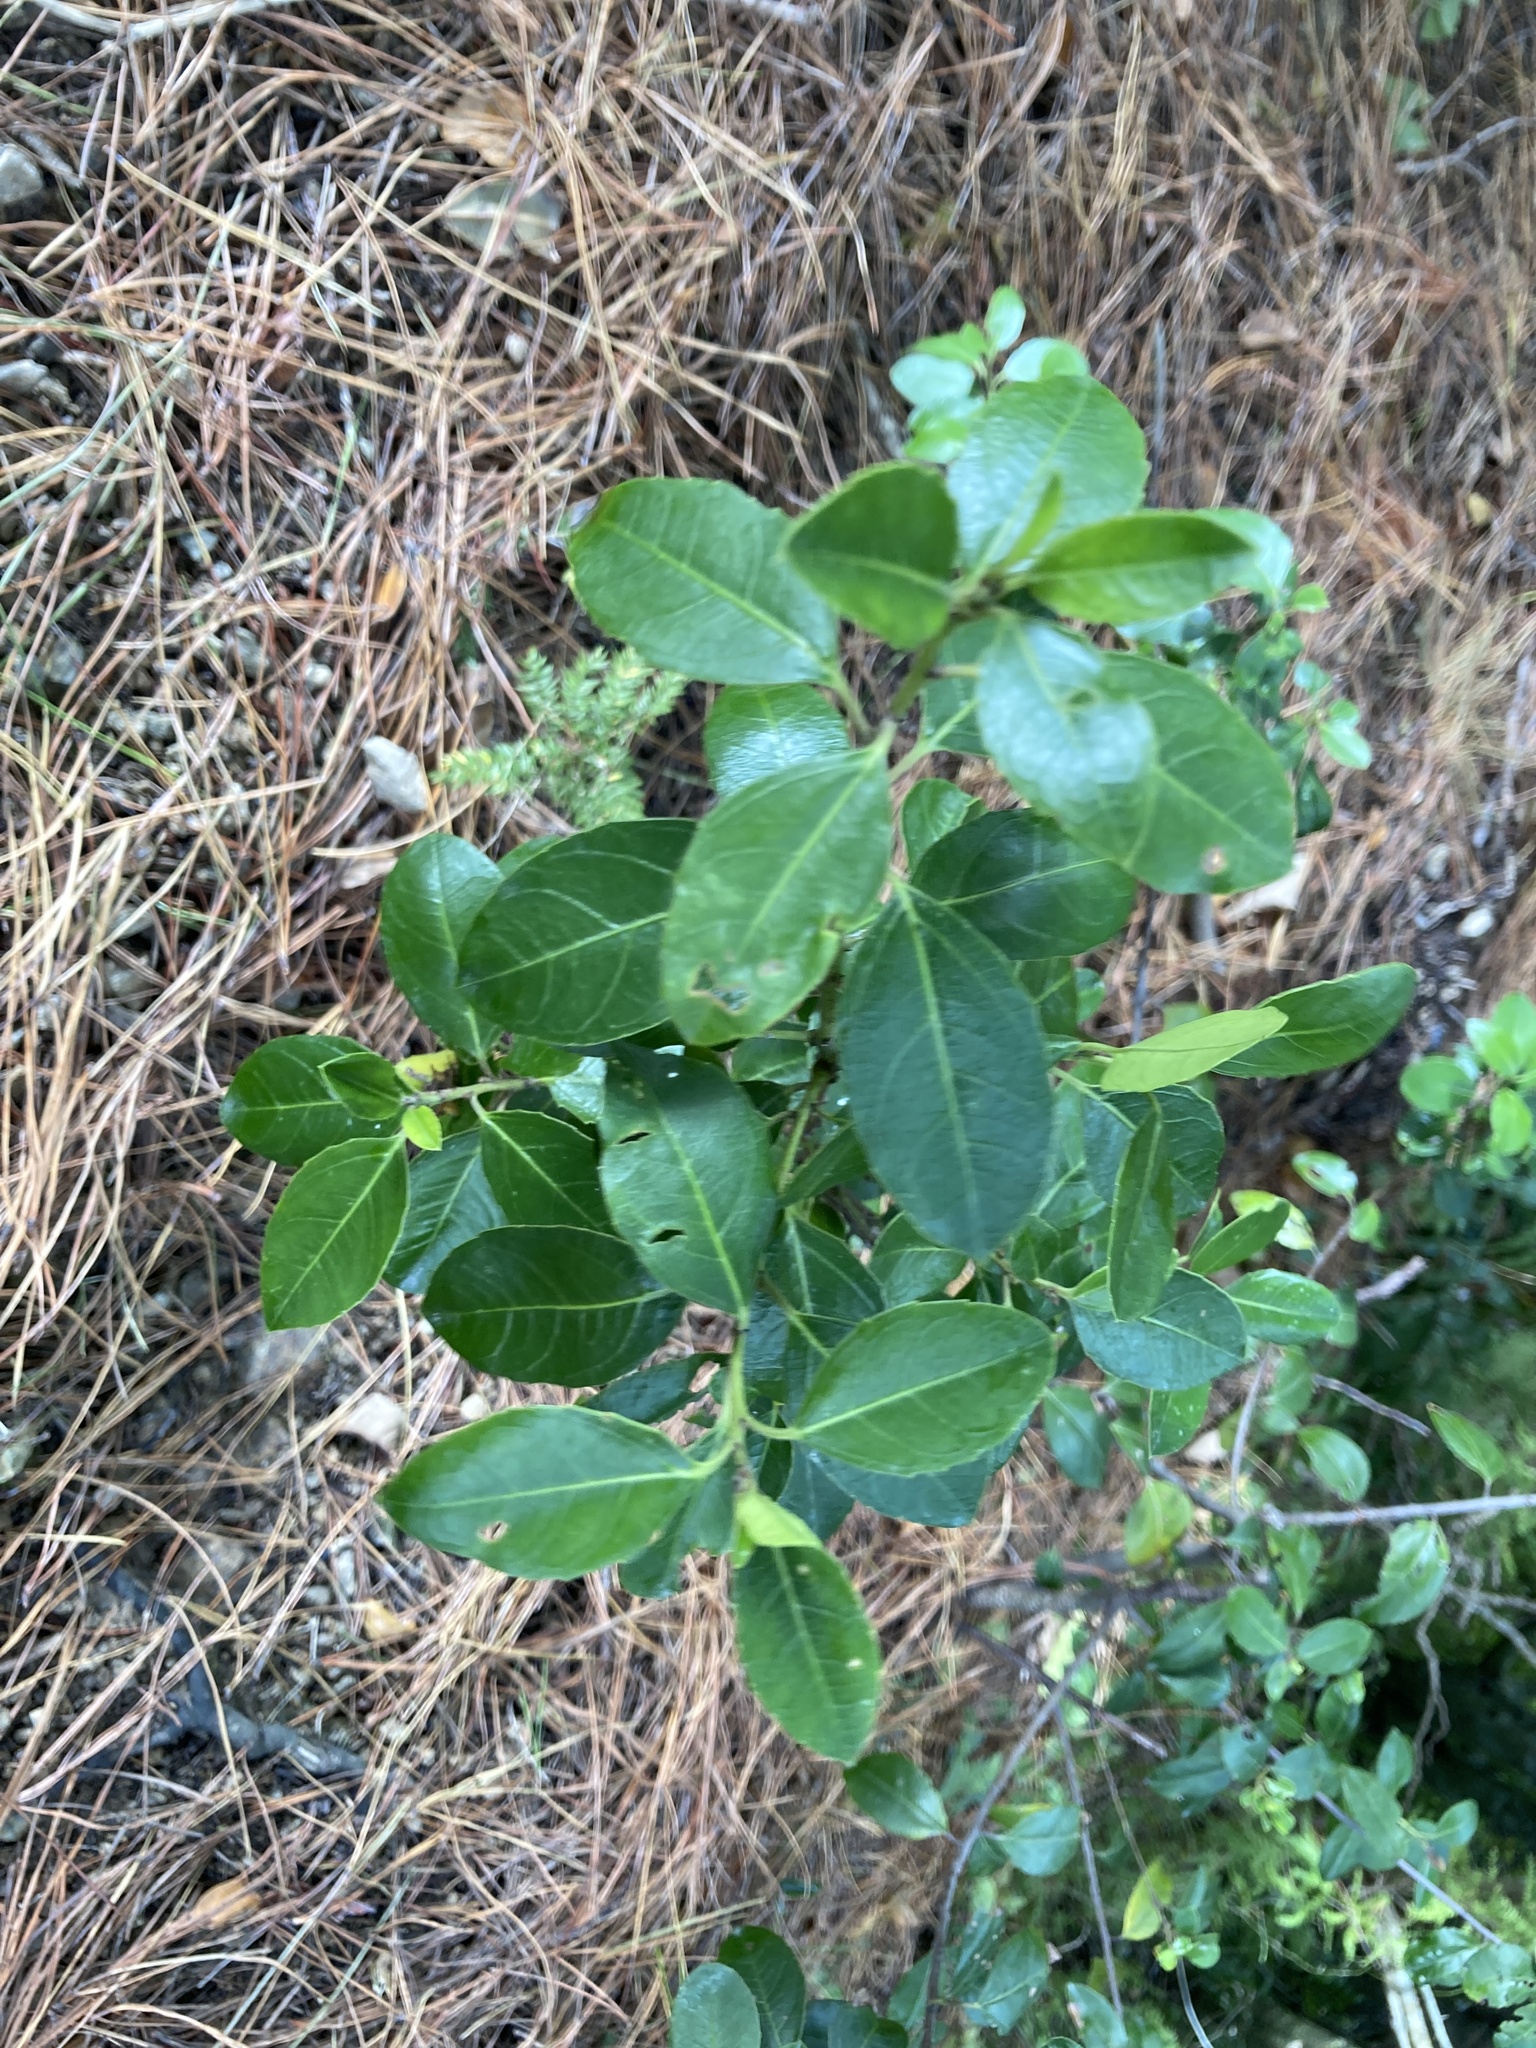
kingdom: Plantae
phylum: Tracheophyta
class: Magnoliopsida
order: Rosales
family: Rhamnaceae
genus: Rhamnus
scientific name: Rhamnus alaternus
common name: Mediterranean buckthorn
